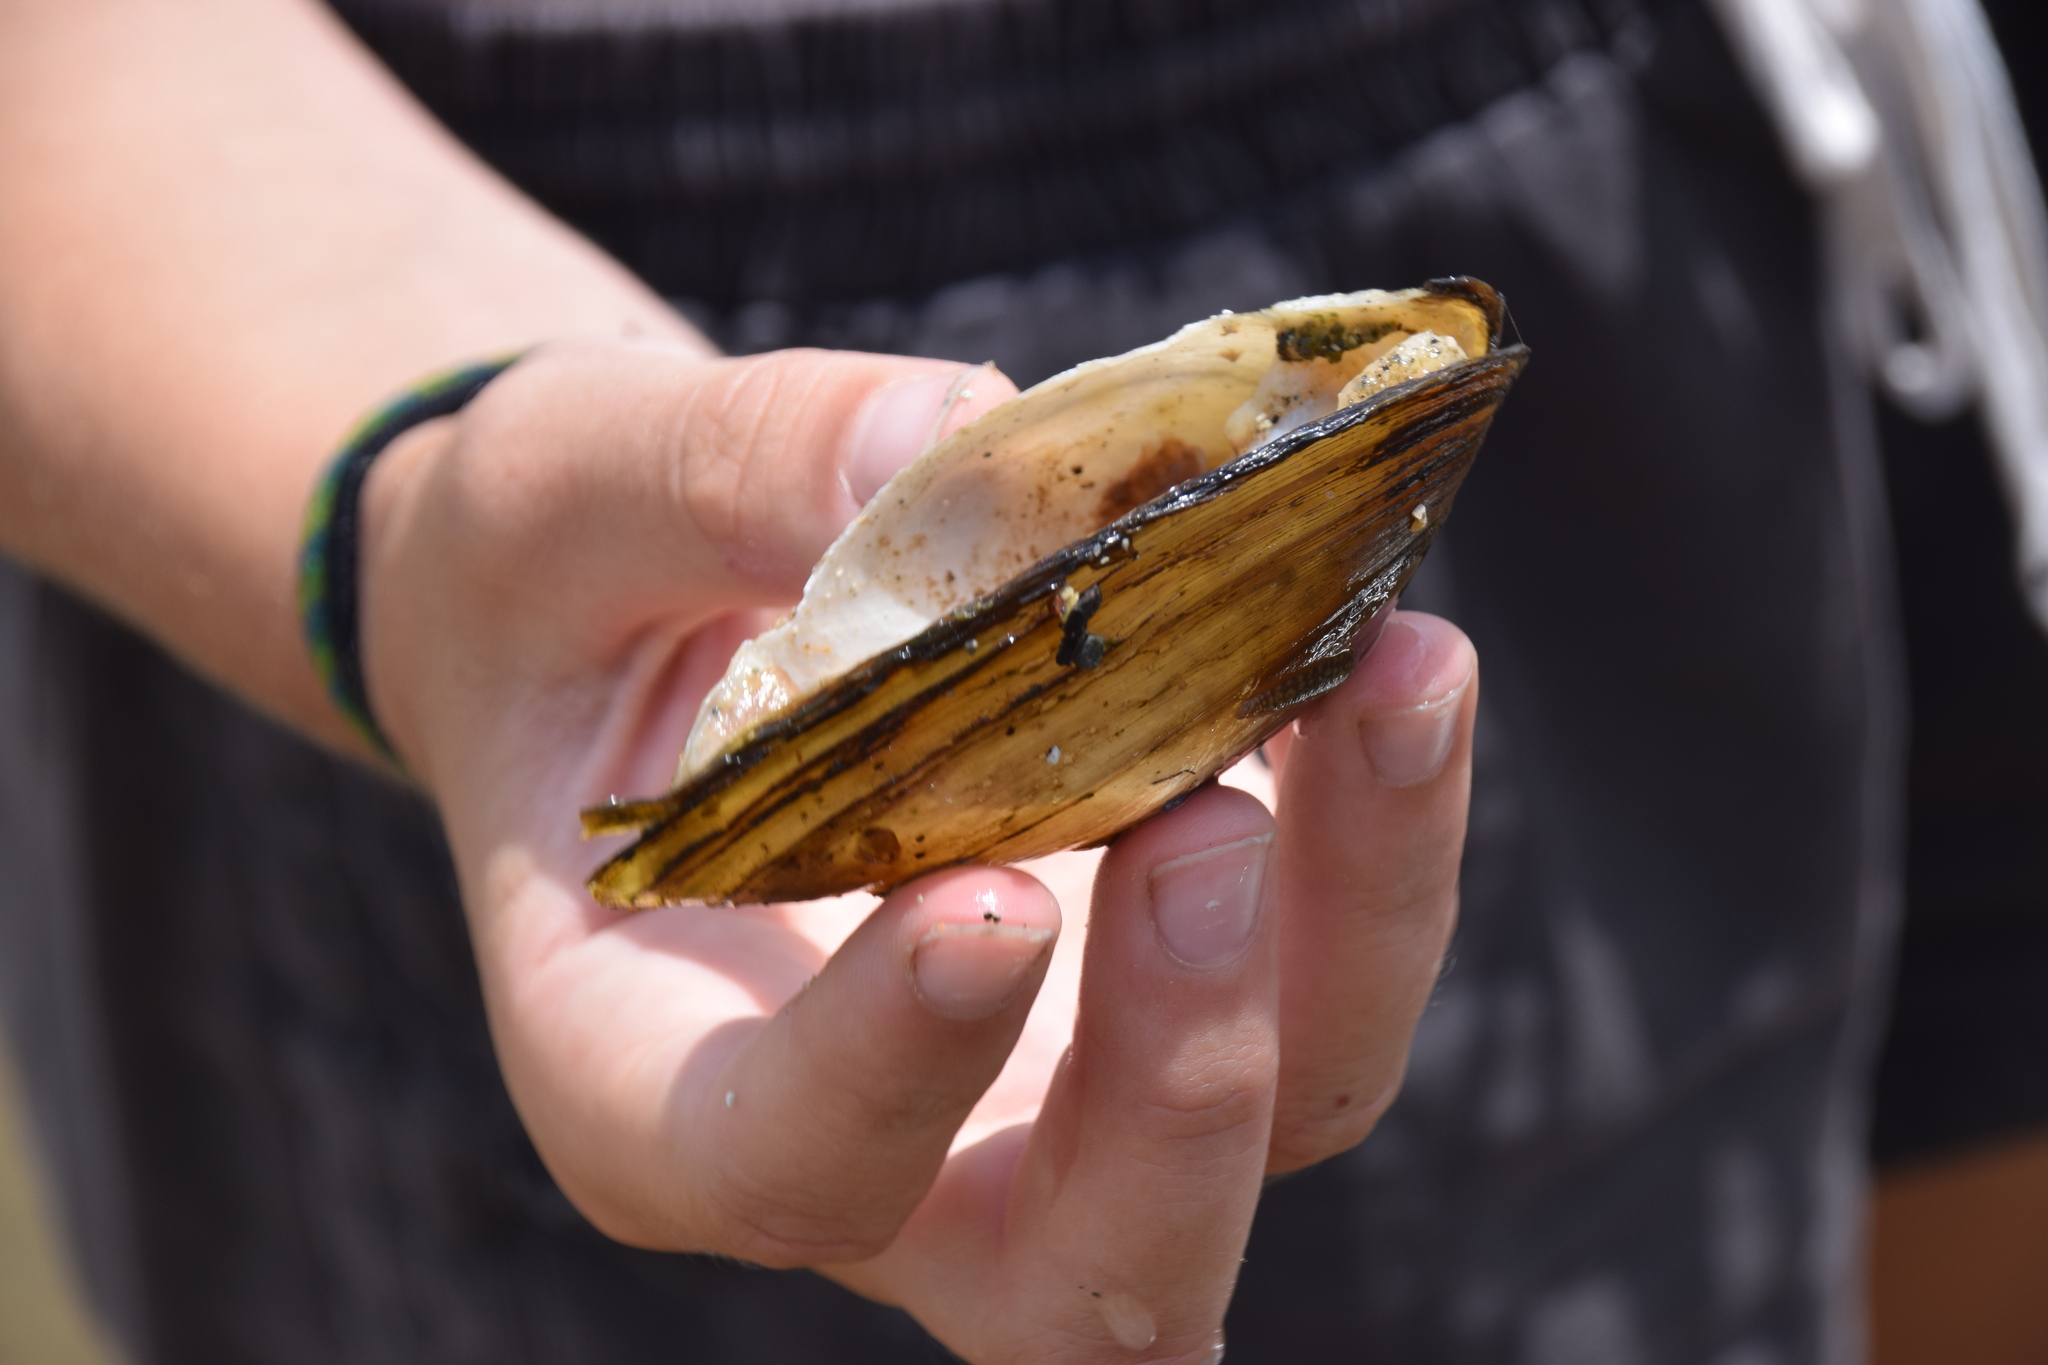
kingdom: Animalia
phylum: Mollusca
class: Bivalvia
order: Unionida
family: Unionidae
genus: Pyganodon
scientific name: Pyganodon grandis
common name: Giant floater
